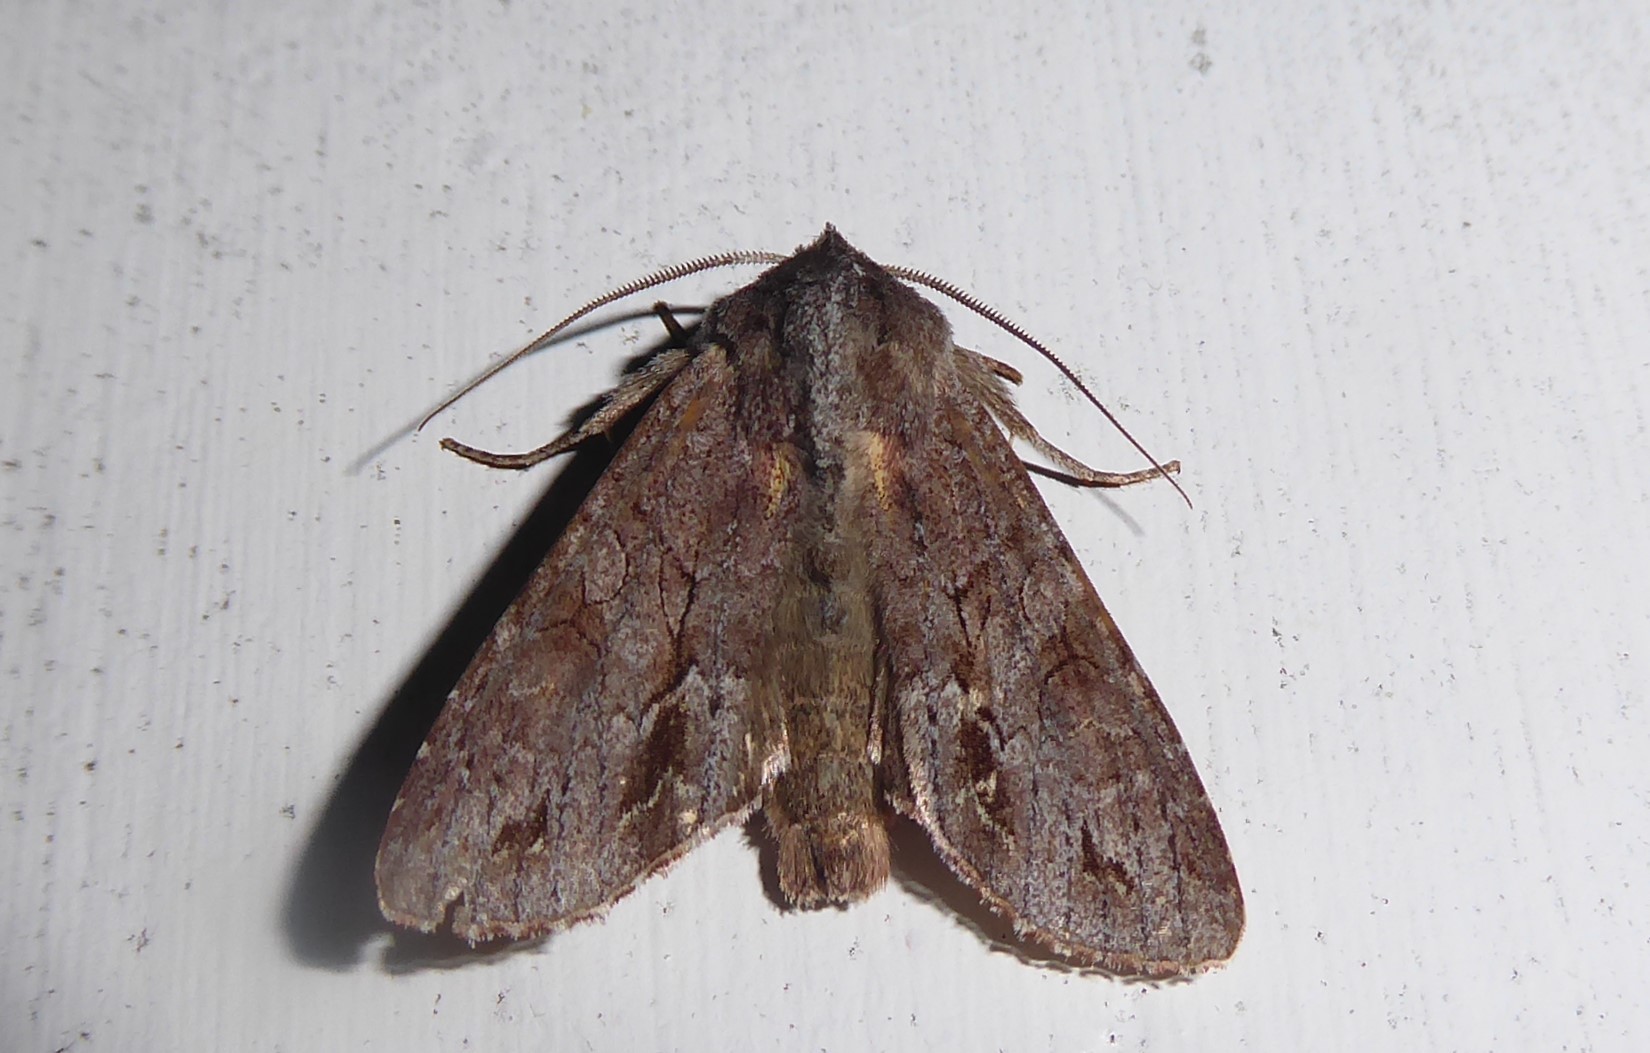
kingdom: Animalia
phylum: Arthropoda
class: Insecta
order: Lepidoptera
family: Noctuidae
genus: Ichneutica
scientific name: Ichneutica
